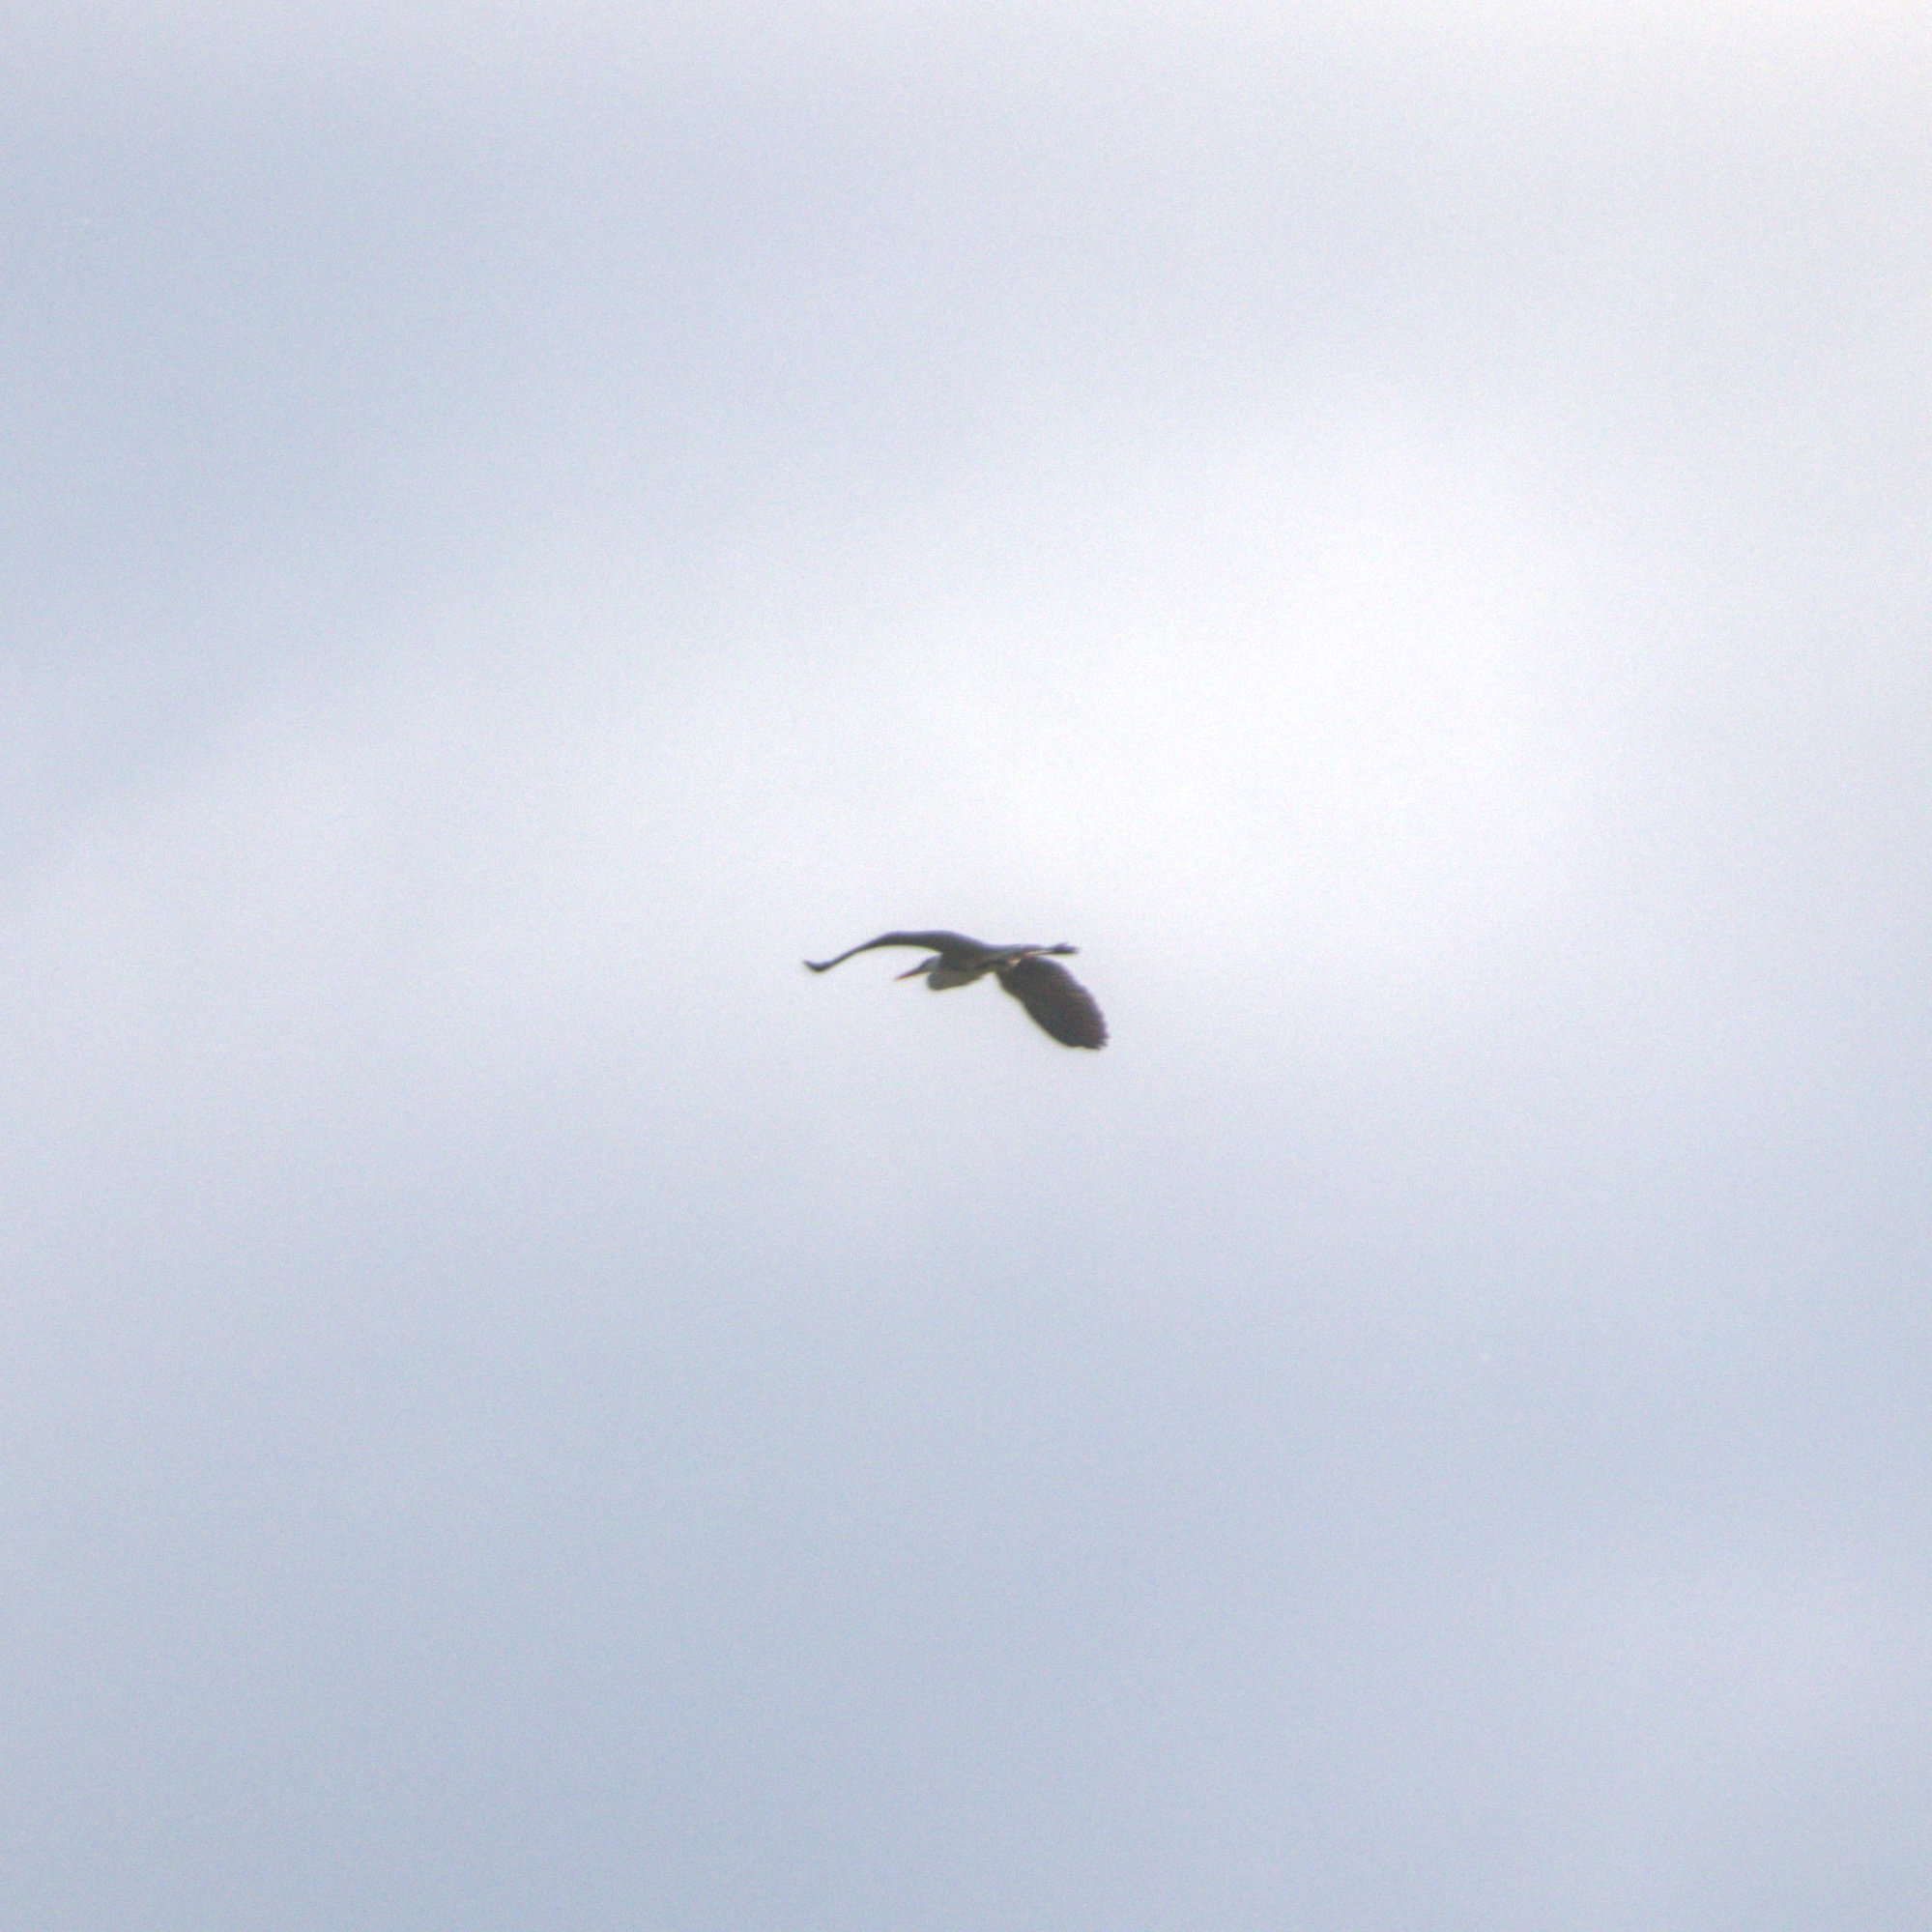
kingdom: Animalia
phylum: Chordata
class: Aves
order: Pelecaniformes
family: Ardeidae
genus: Ardea
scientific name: Ardea cinerea
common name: Grey heron
